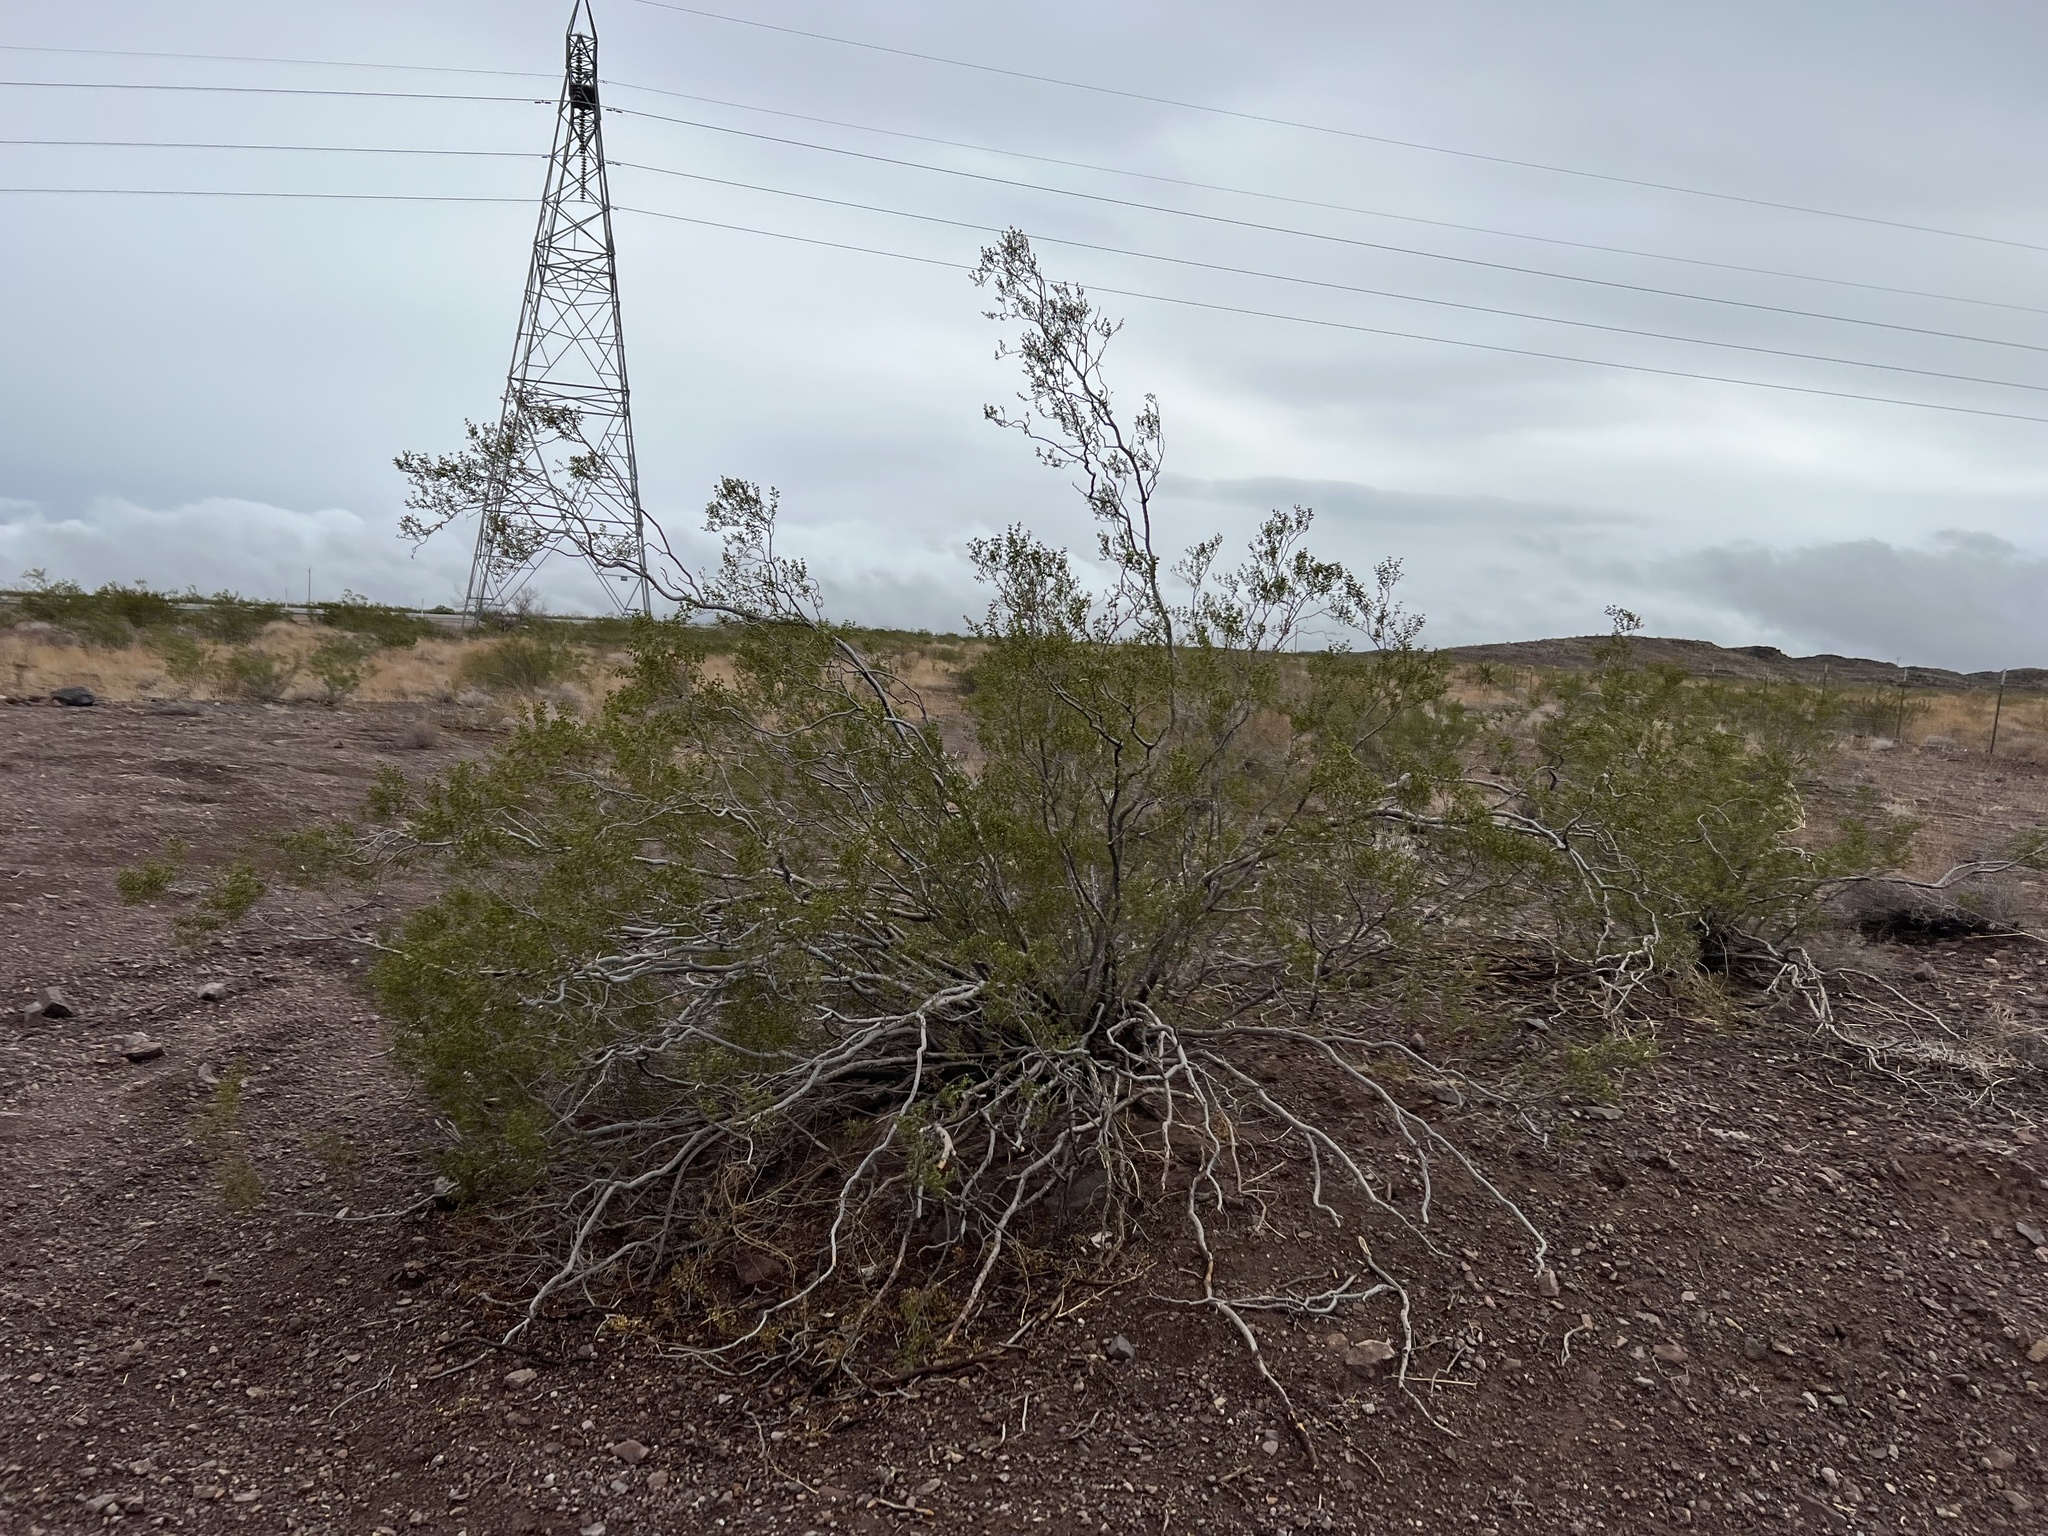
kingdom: Plantae
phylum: Tracheophyta
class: Magnoliopsida
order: Zygophyllales
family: Zygophyllaceae
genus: Larrea
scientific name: Larrea tridentata
